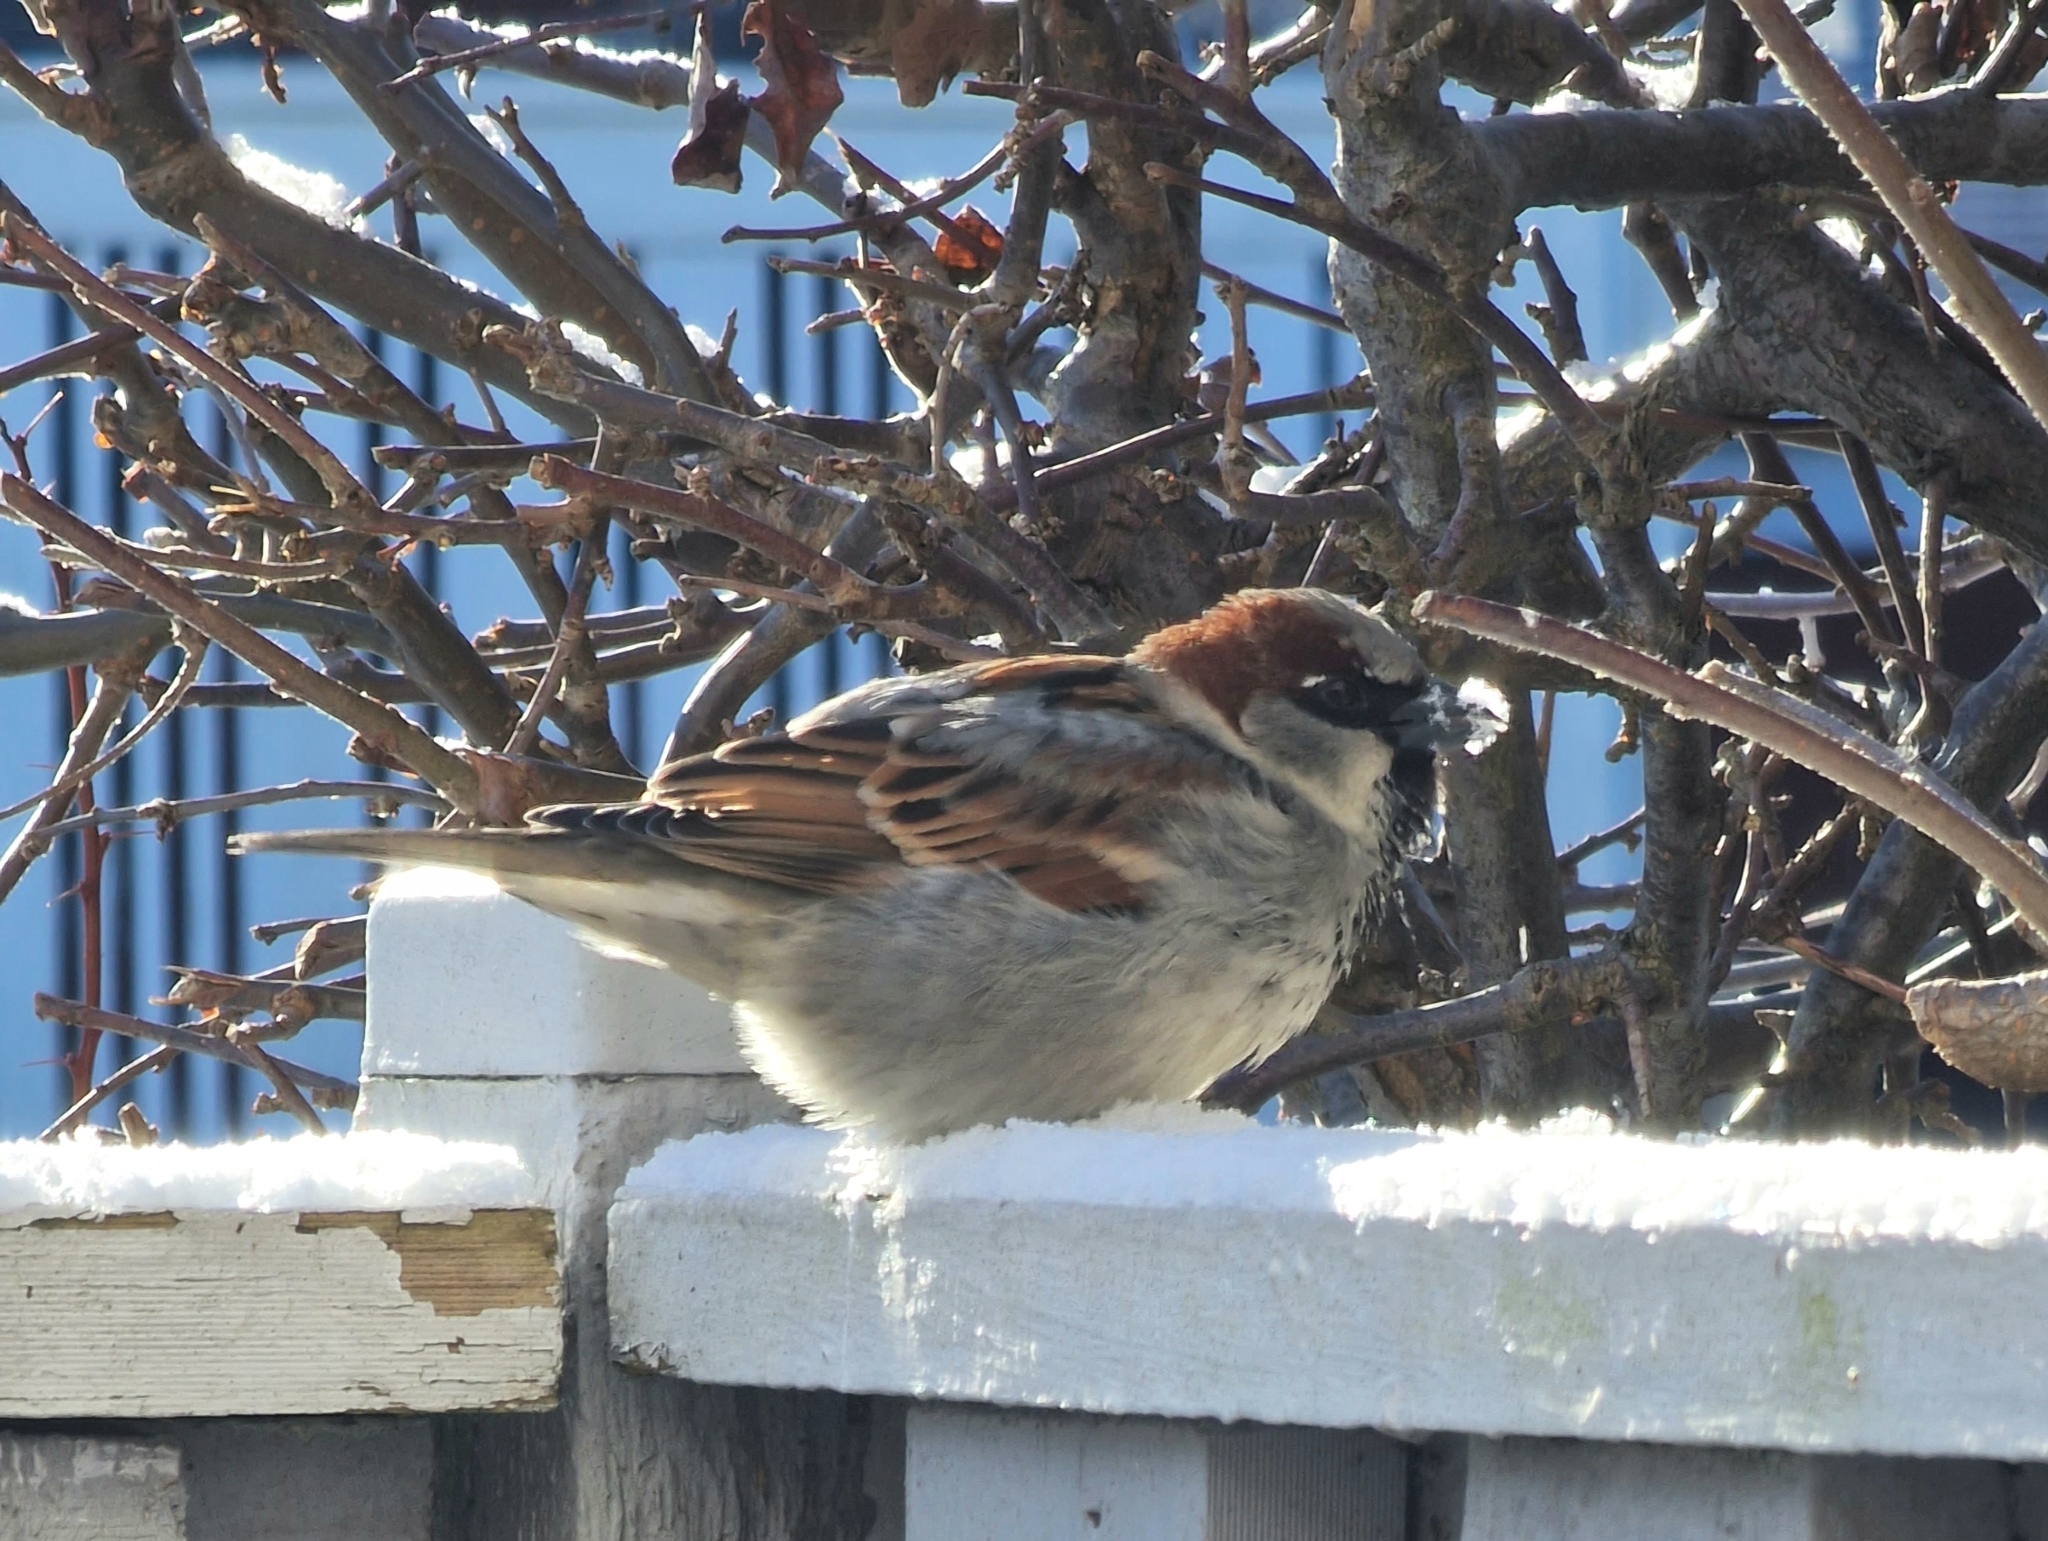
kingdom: Animalia
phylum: Chordata
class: Aves
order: Passeriformes
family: Passeridae
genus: Passer
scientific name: Passer domesticus
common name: House sparrow
